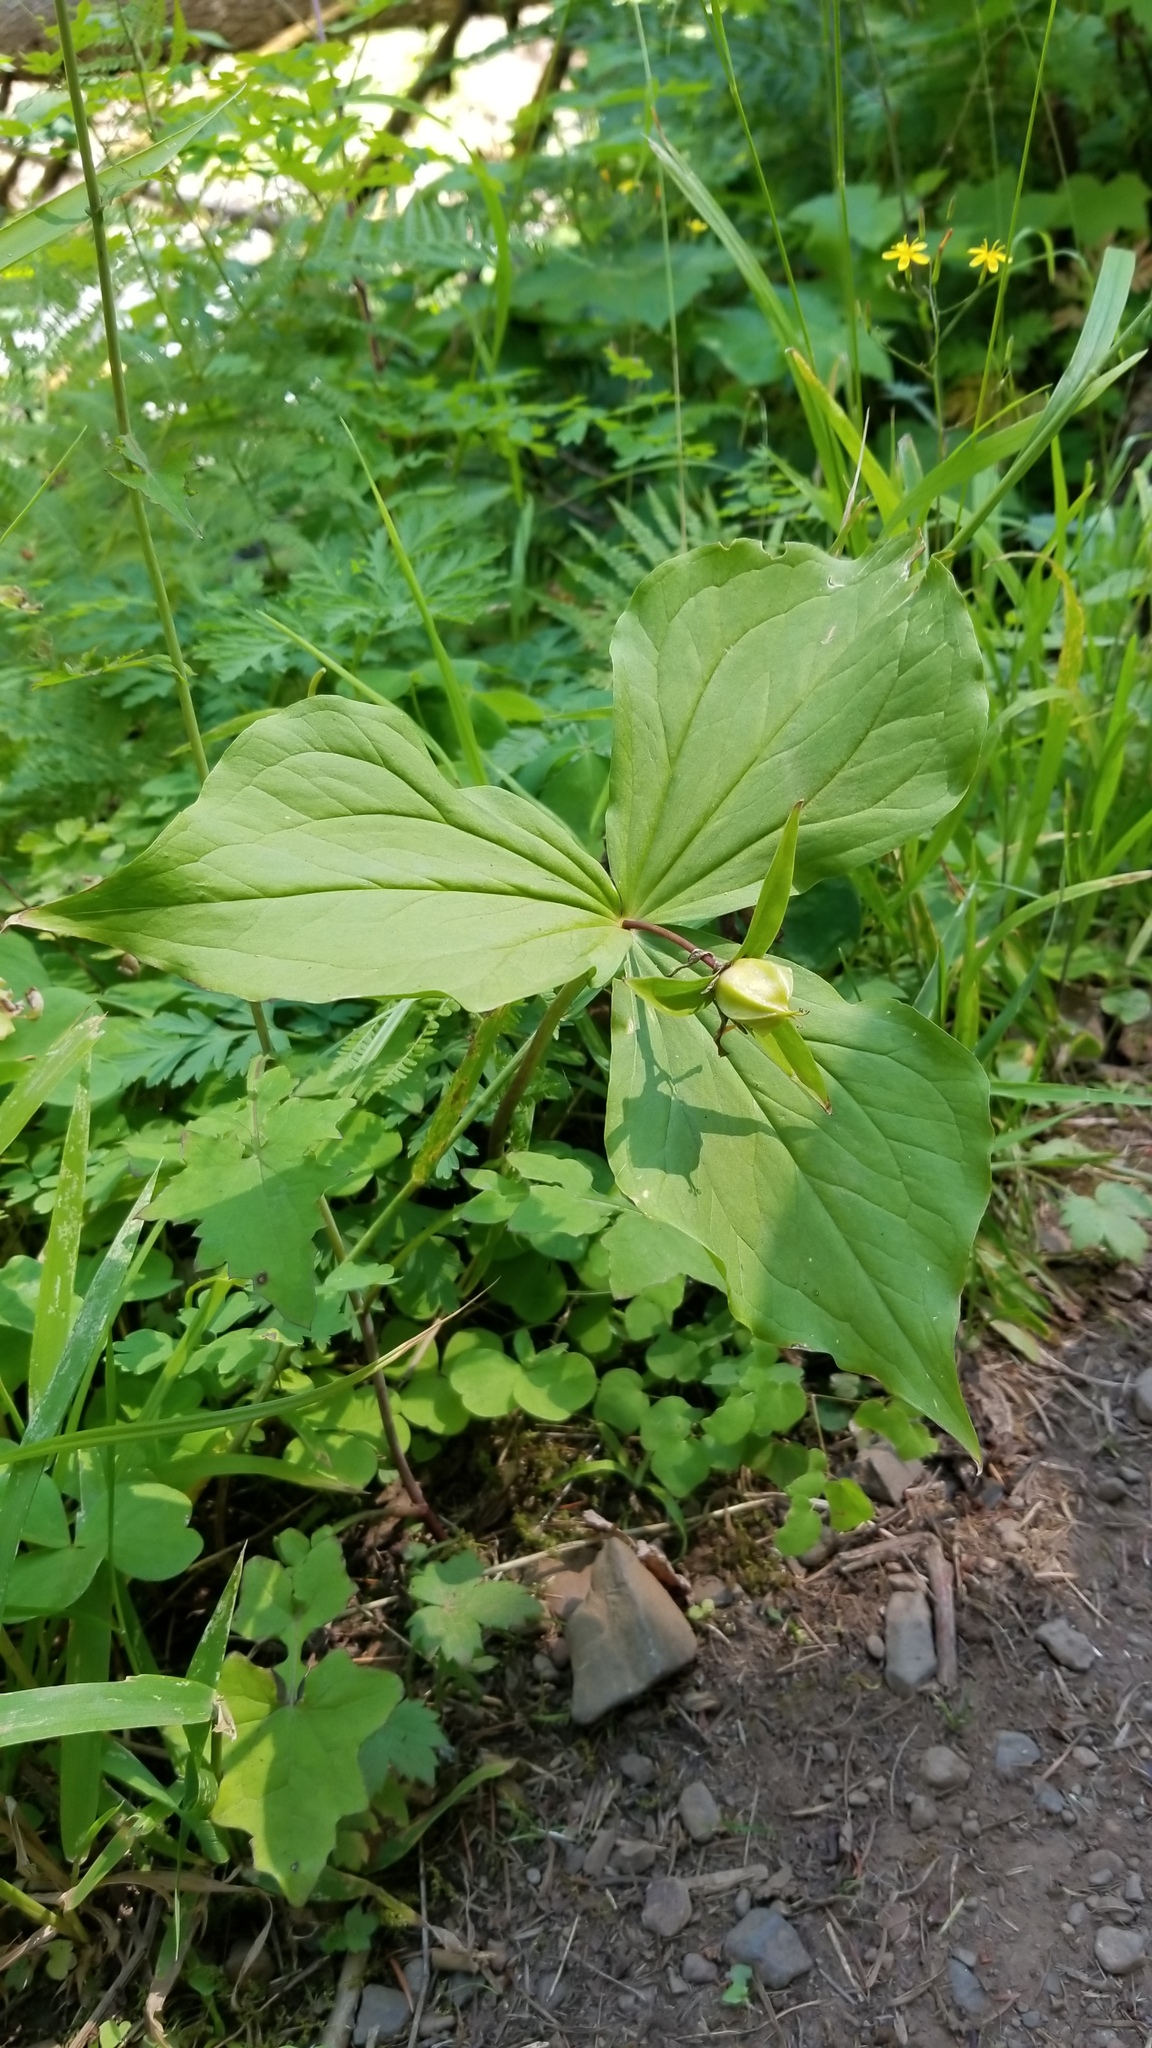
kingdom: Plantae
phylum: Tracheophyta
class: Liliopsida
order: Liliales
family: Melanthiaceae
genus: Trillium
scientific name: Trillium ovatum
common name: Pacific trillium
